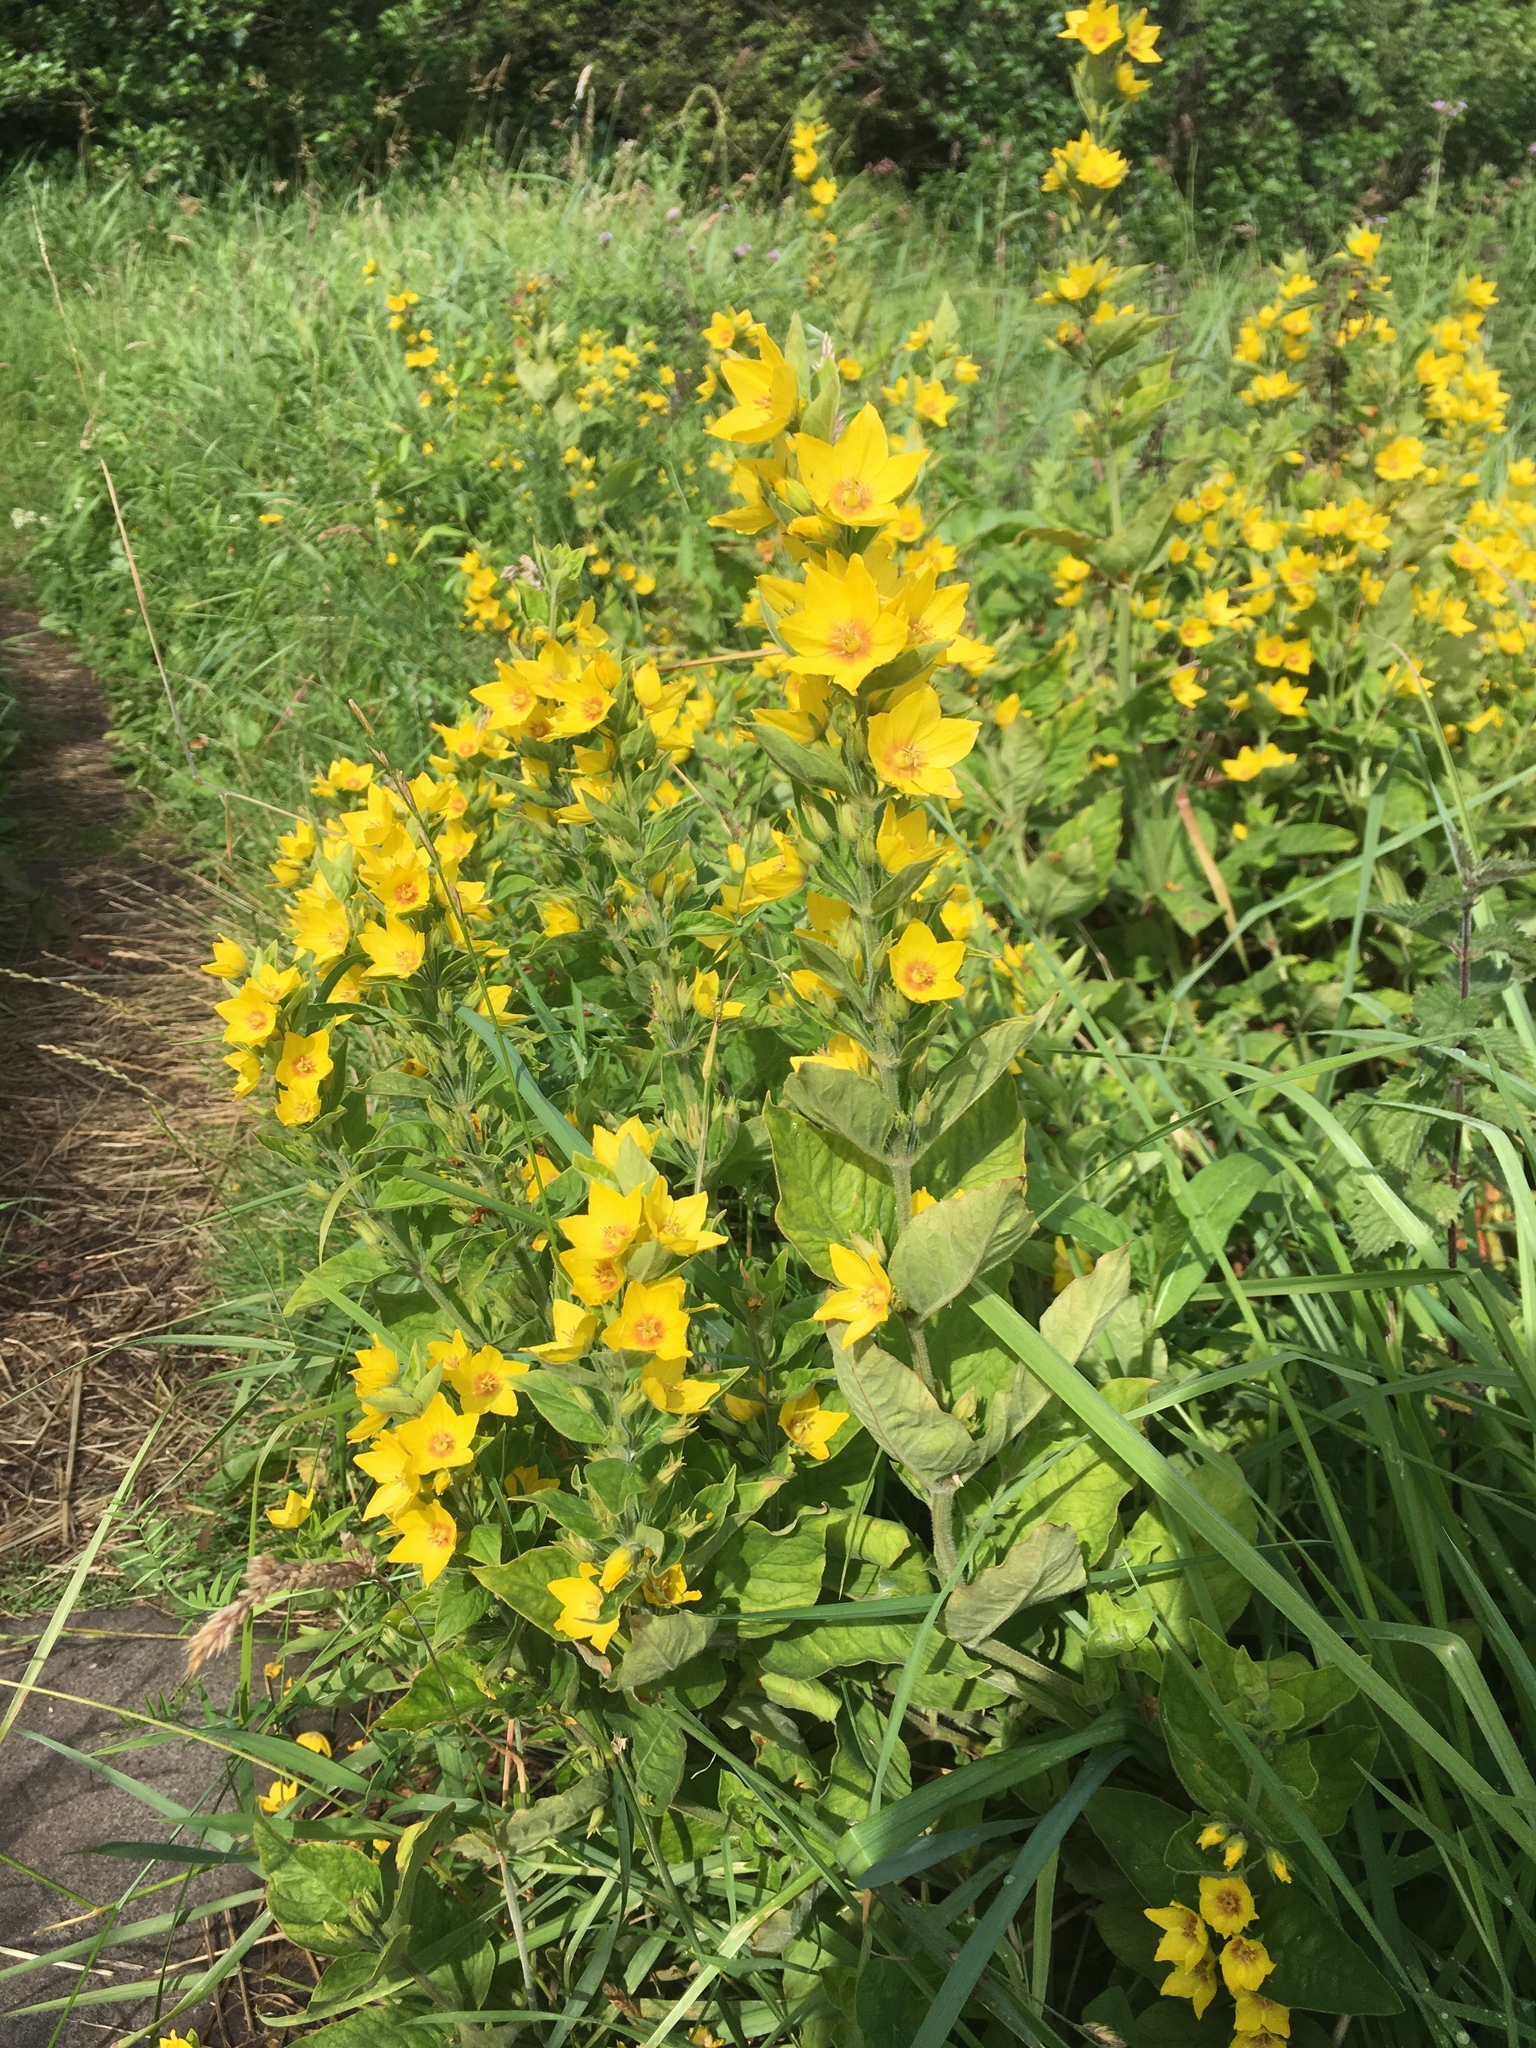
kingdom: Plantae
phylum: Tracheophyta
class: Magnoliopsida
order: Ericales
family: Primulaceae
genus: Lysimachia
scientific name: Lysimachia punctata
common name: Dotted loosestrife
